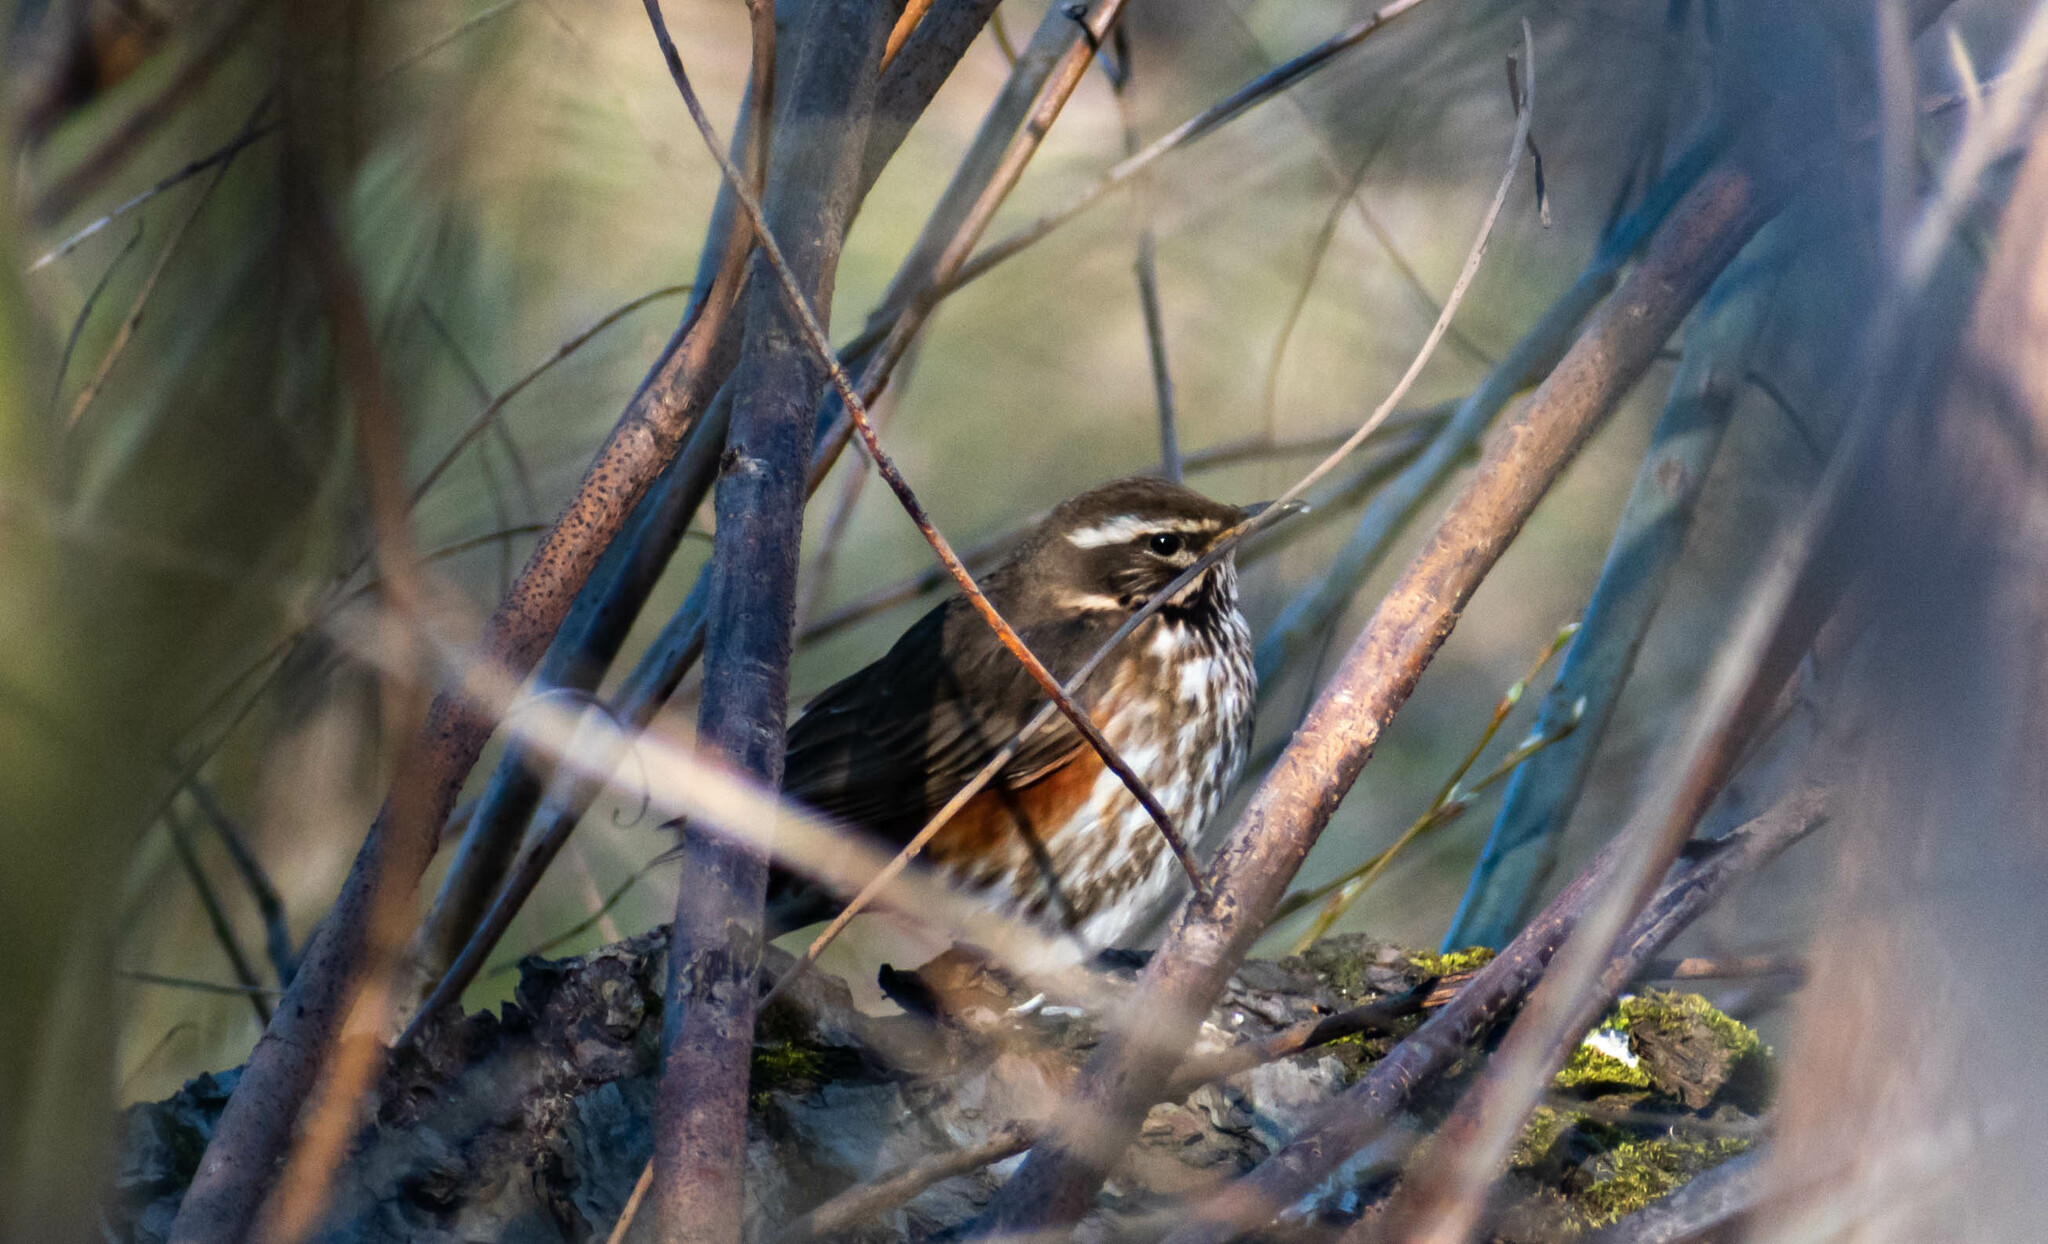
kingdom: Animalia
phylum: Chordata
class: Aves
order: Passeriformes
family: Turdidae
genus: Turdus
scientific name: Turdus iliacus
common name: Redwing
